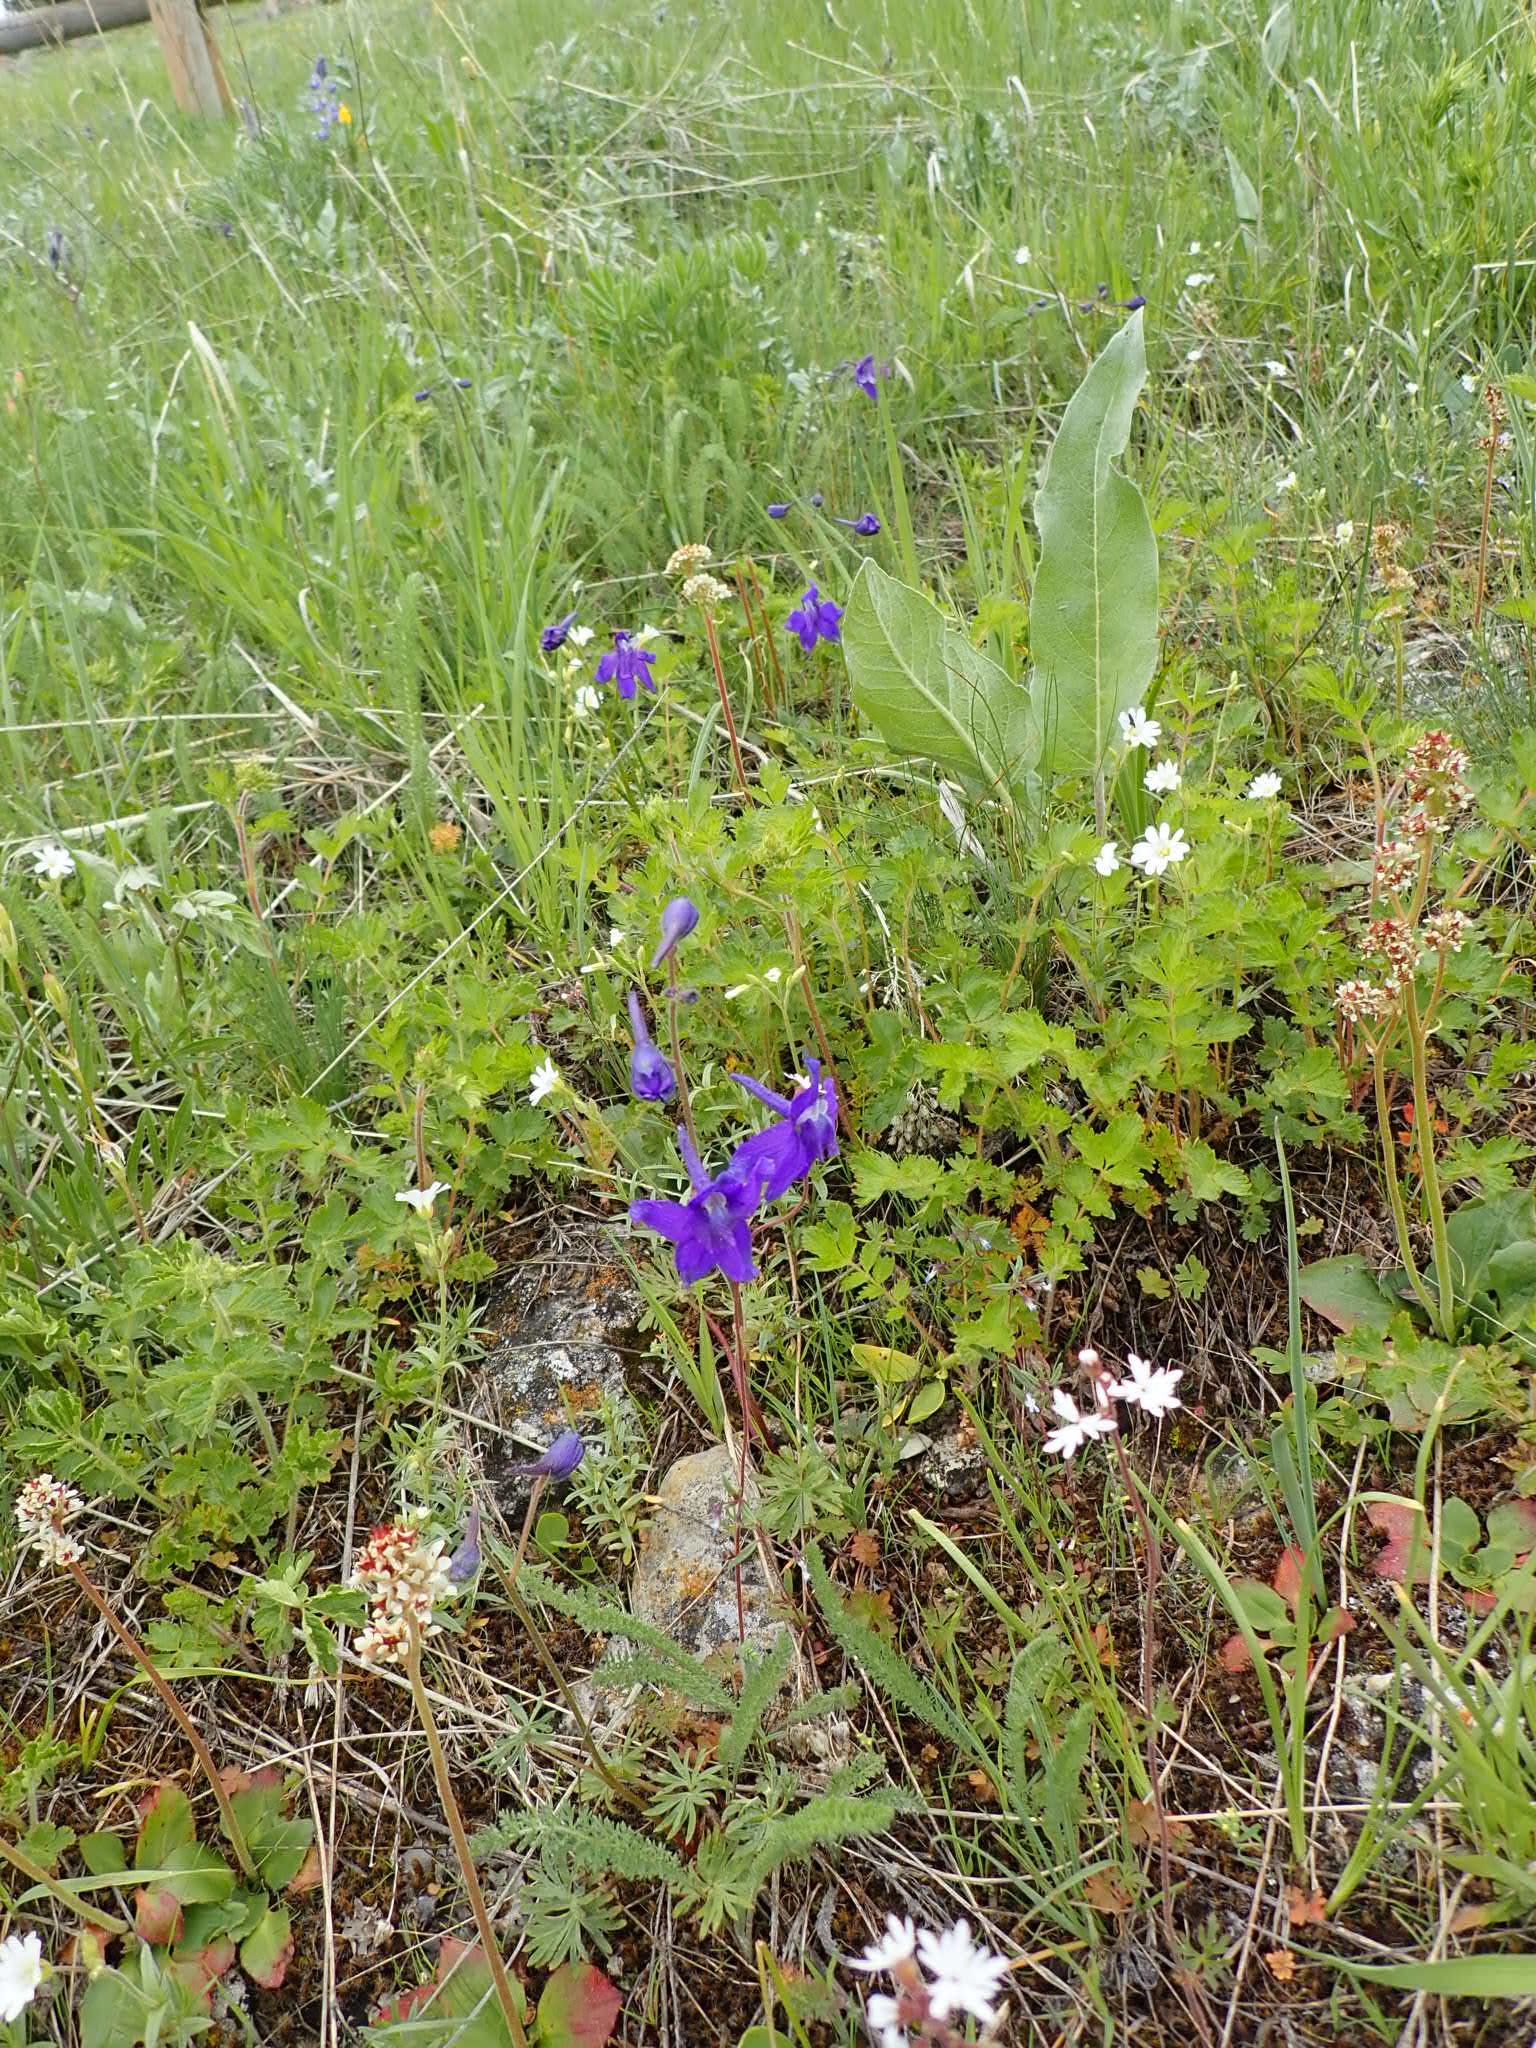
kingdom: Plantae
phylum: Tracheophyta
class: Magnoliopsida
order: Saxifragales
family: Saxifragaceae
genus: Lithophragma
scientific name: Lithophragma parviflorum
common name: Small-flowered fringe-cup
